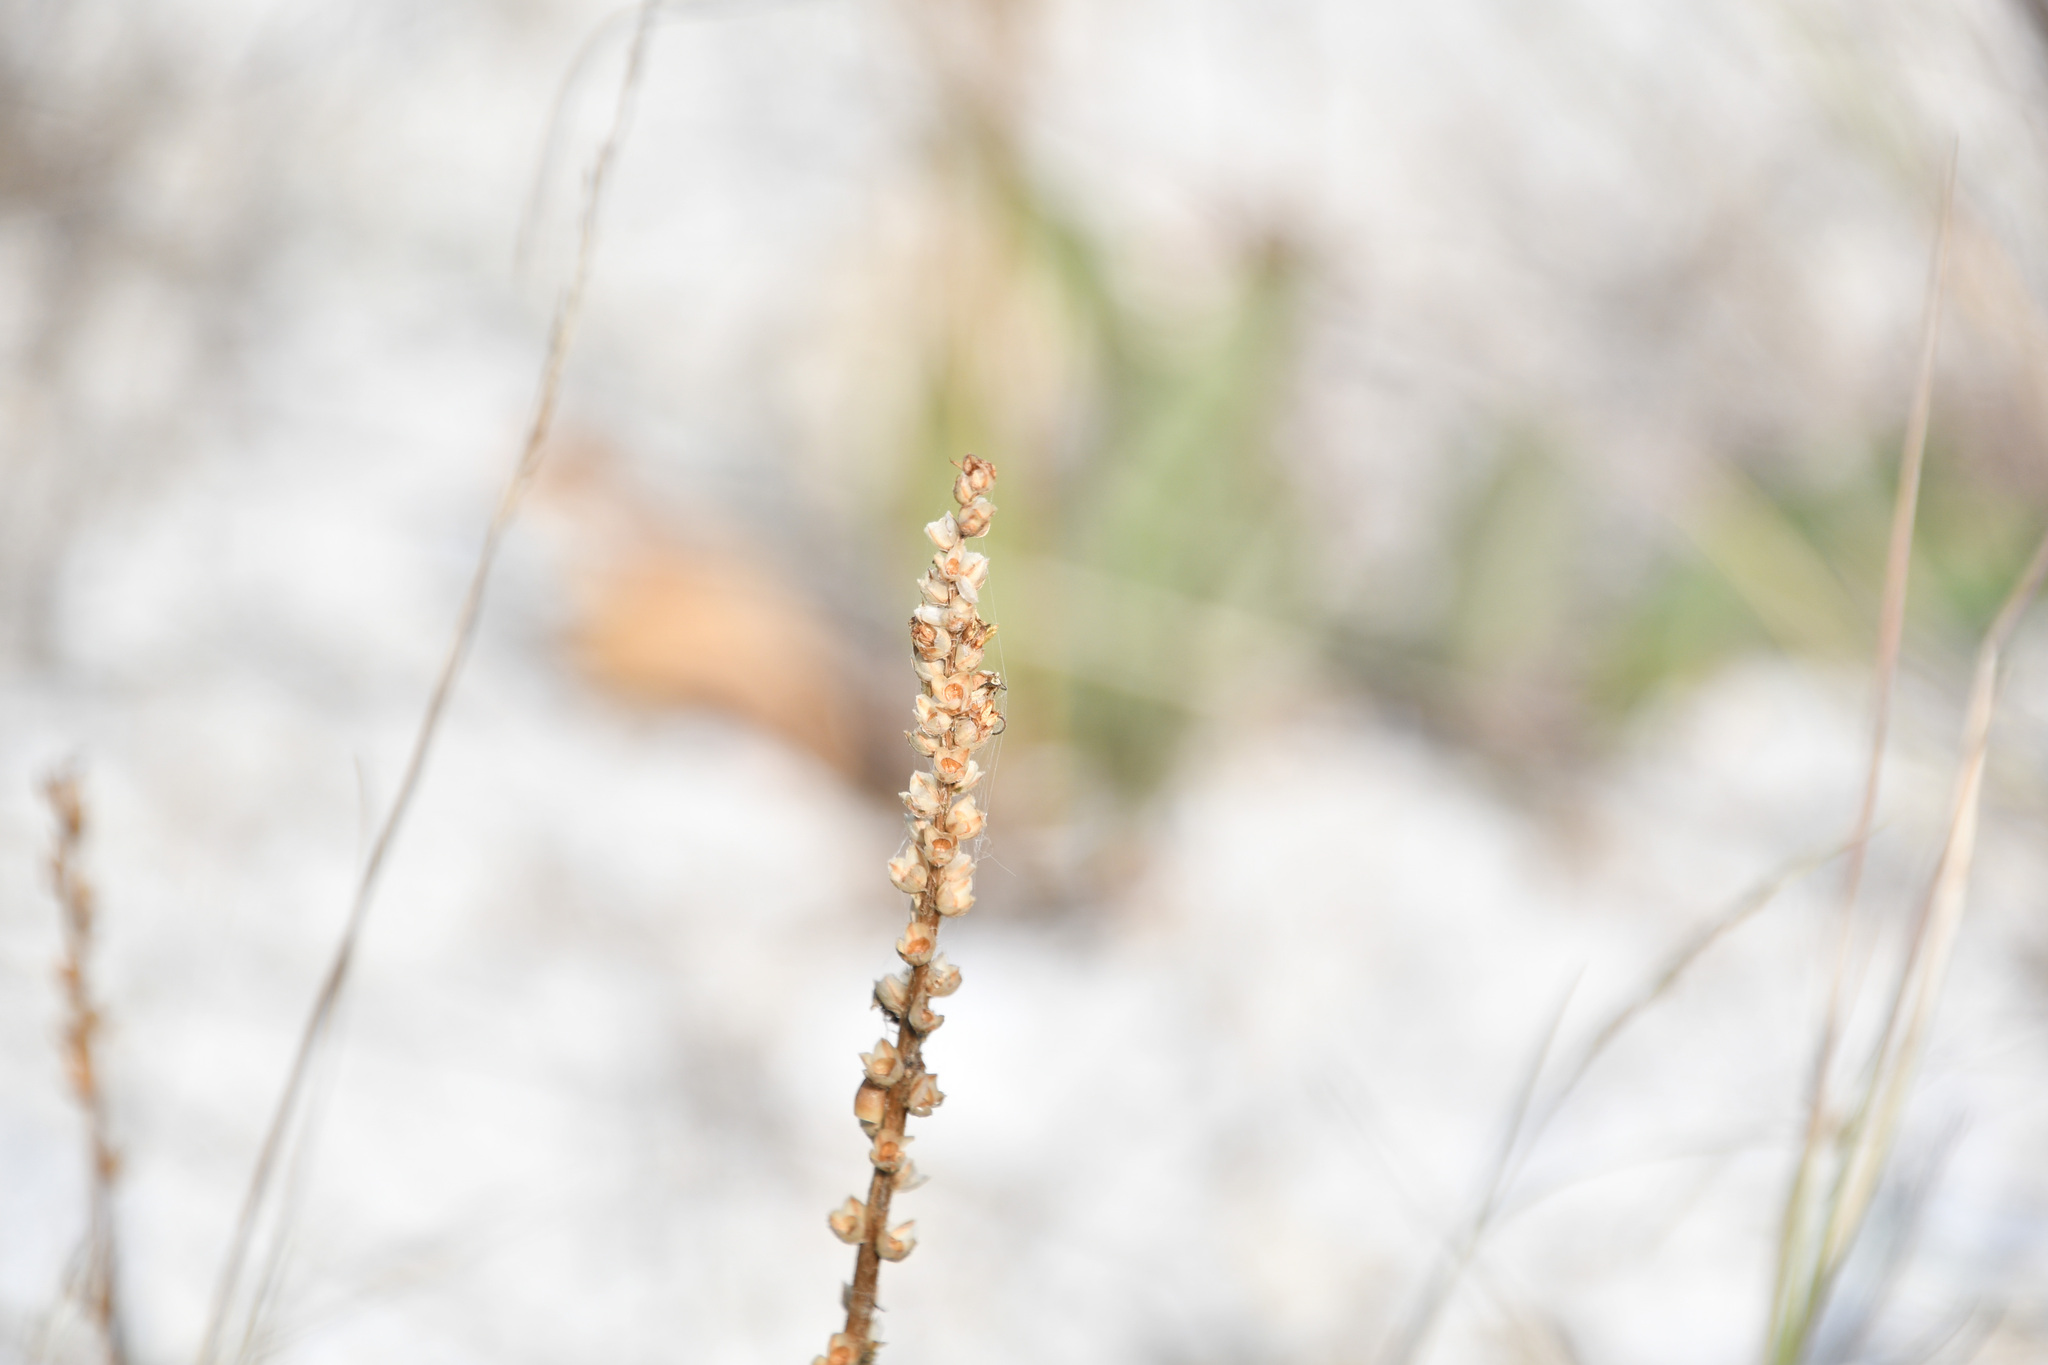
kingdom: Plantae
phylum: Tracheophyta
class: Magnoliopsida
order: Lamiales
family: Plantaginaceae
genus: Plantago
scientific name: Plantago eriopoda
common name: Alkali plantain
